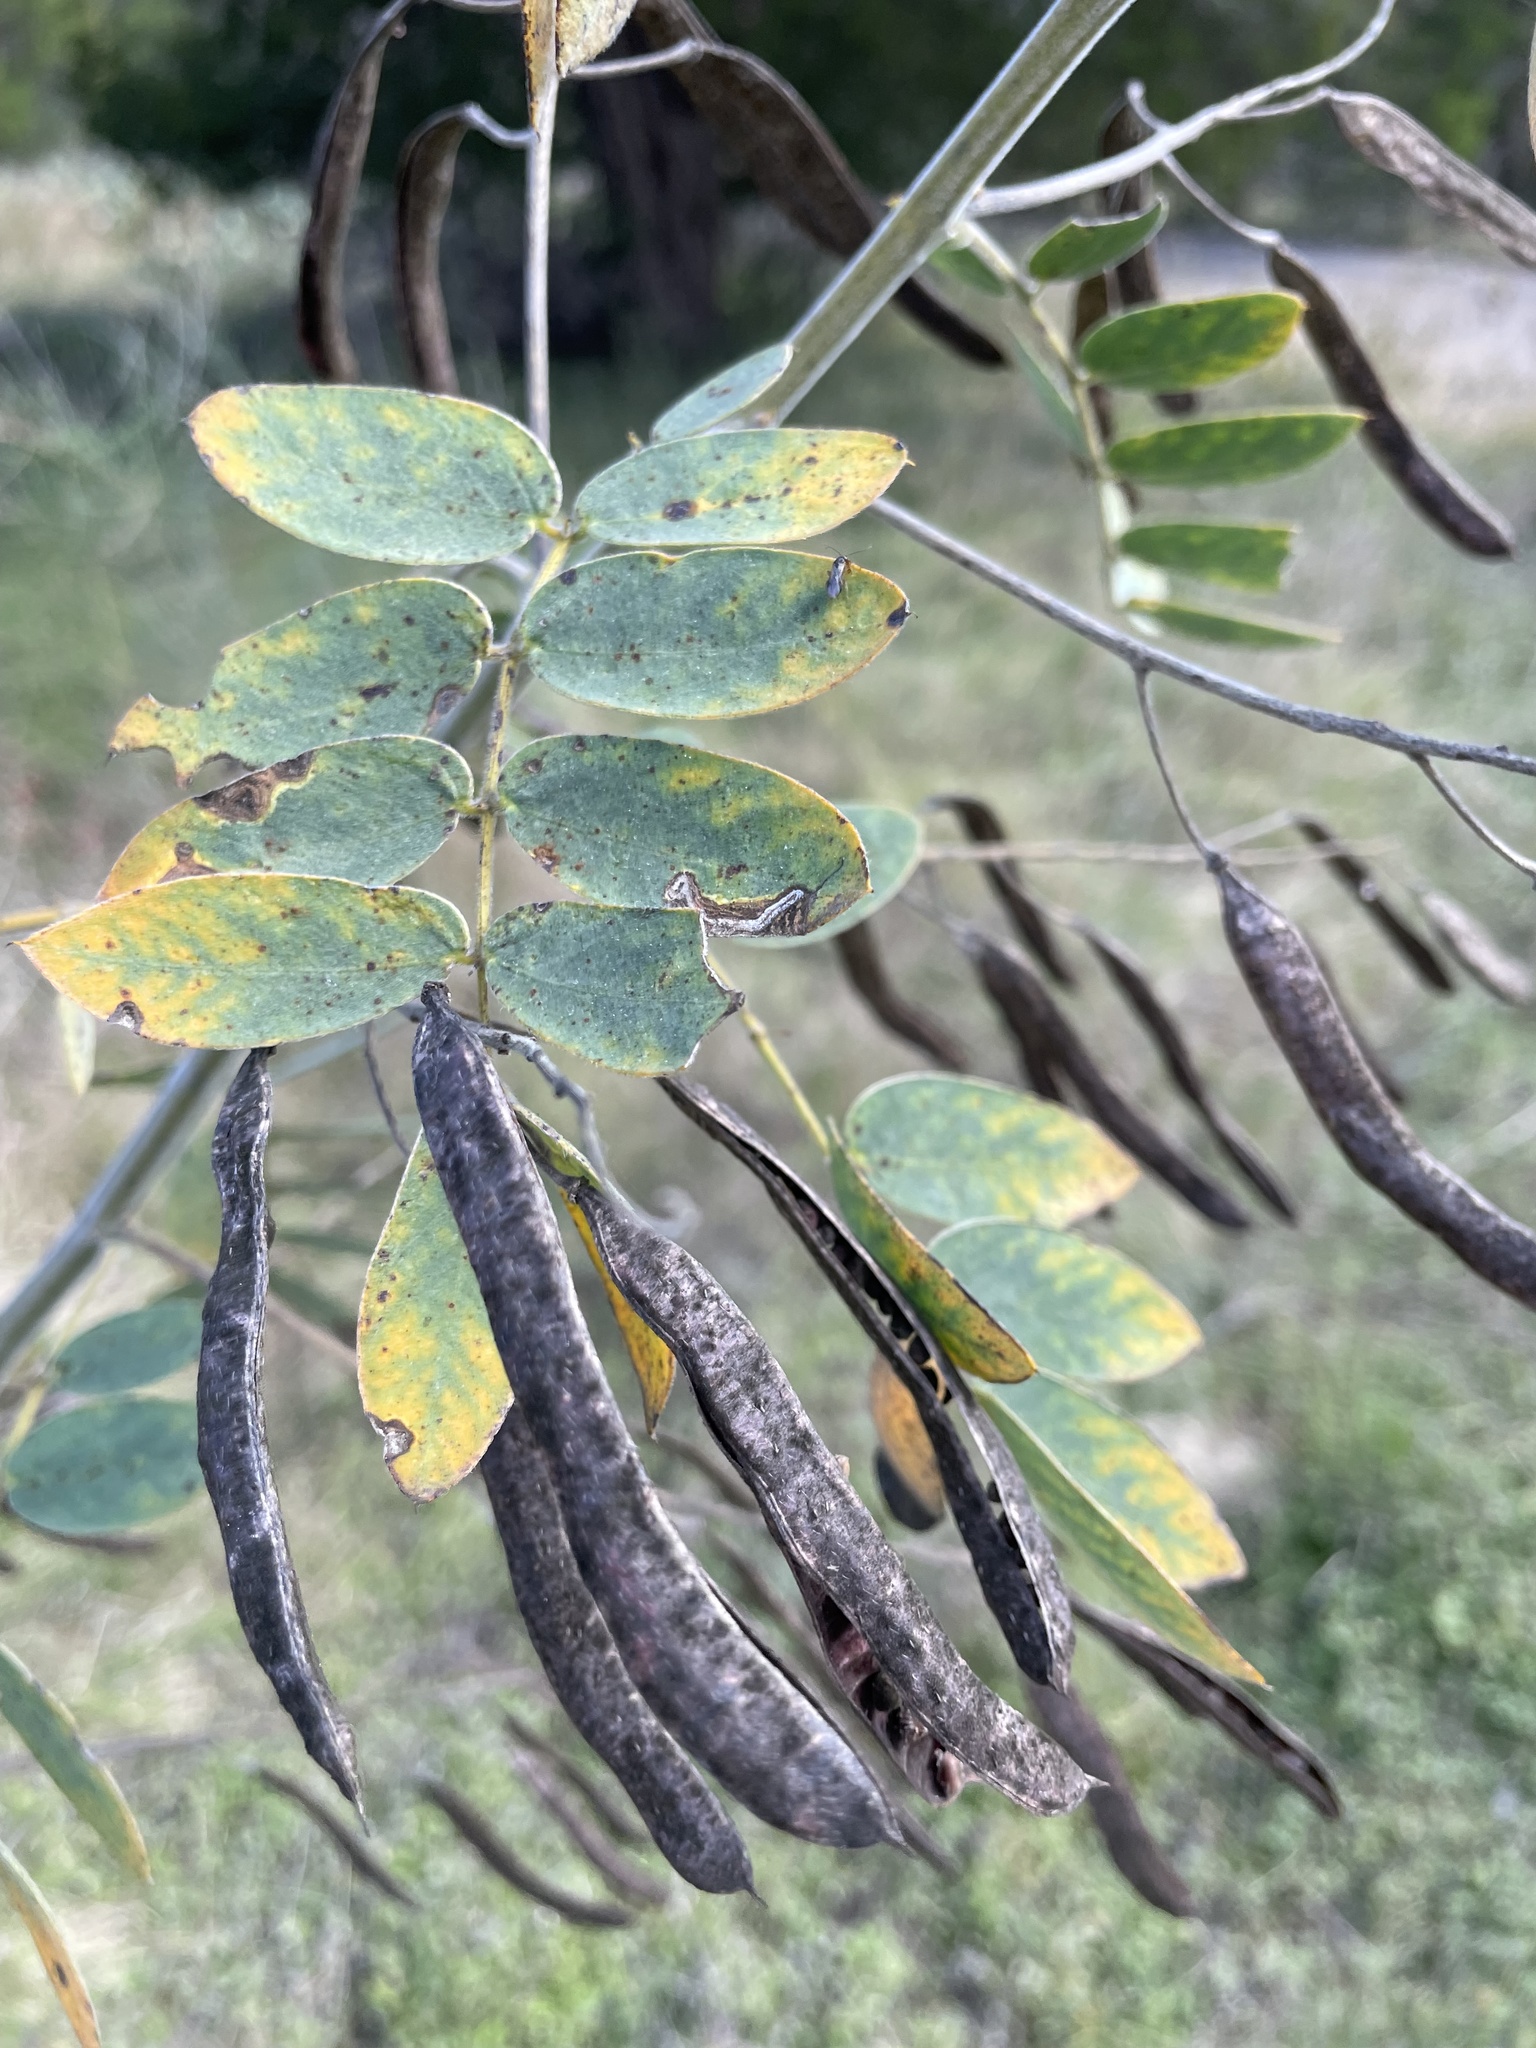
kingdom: Plantae
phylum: Tracheophyta
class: Magnoliopsida
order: Fabales
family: Fabaceae
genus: Senna
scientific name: Senna lindheimeriana
